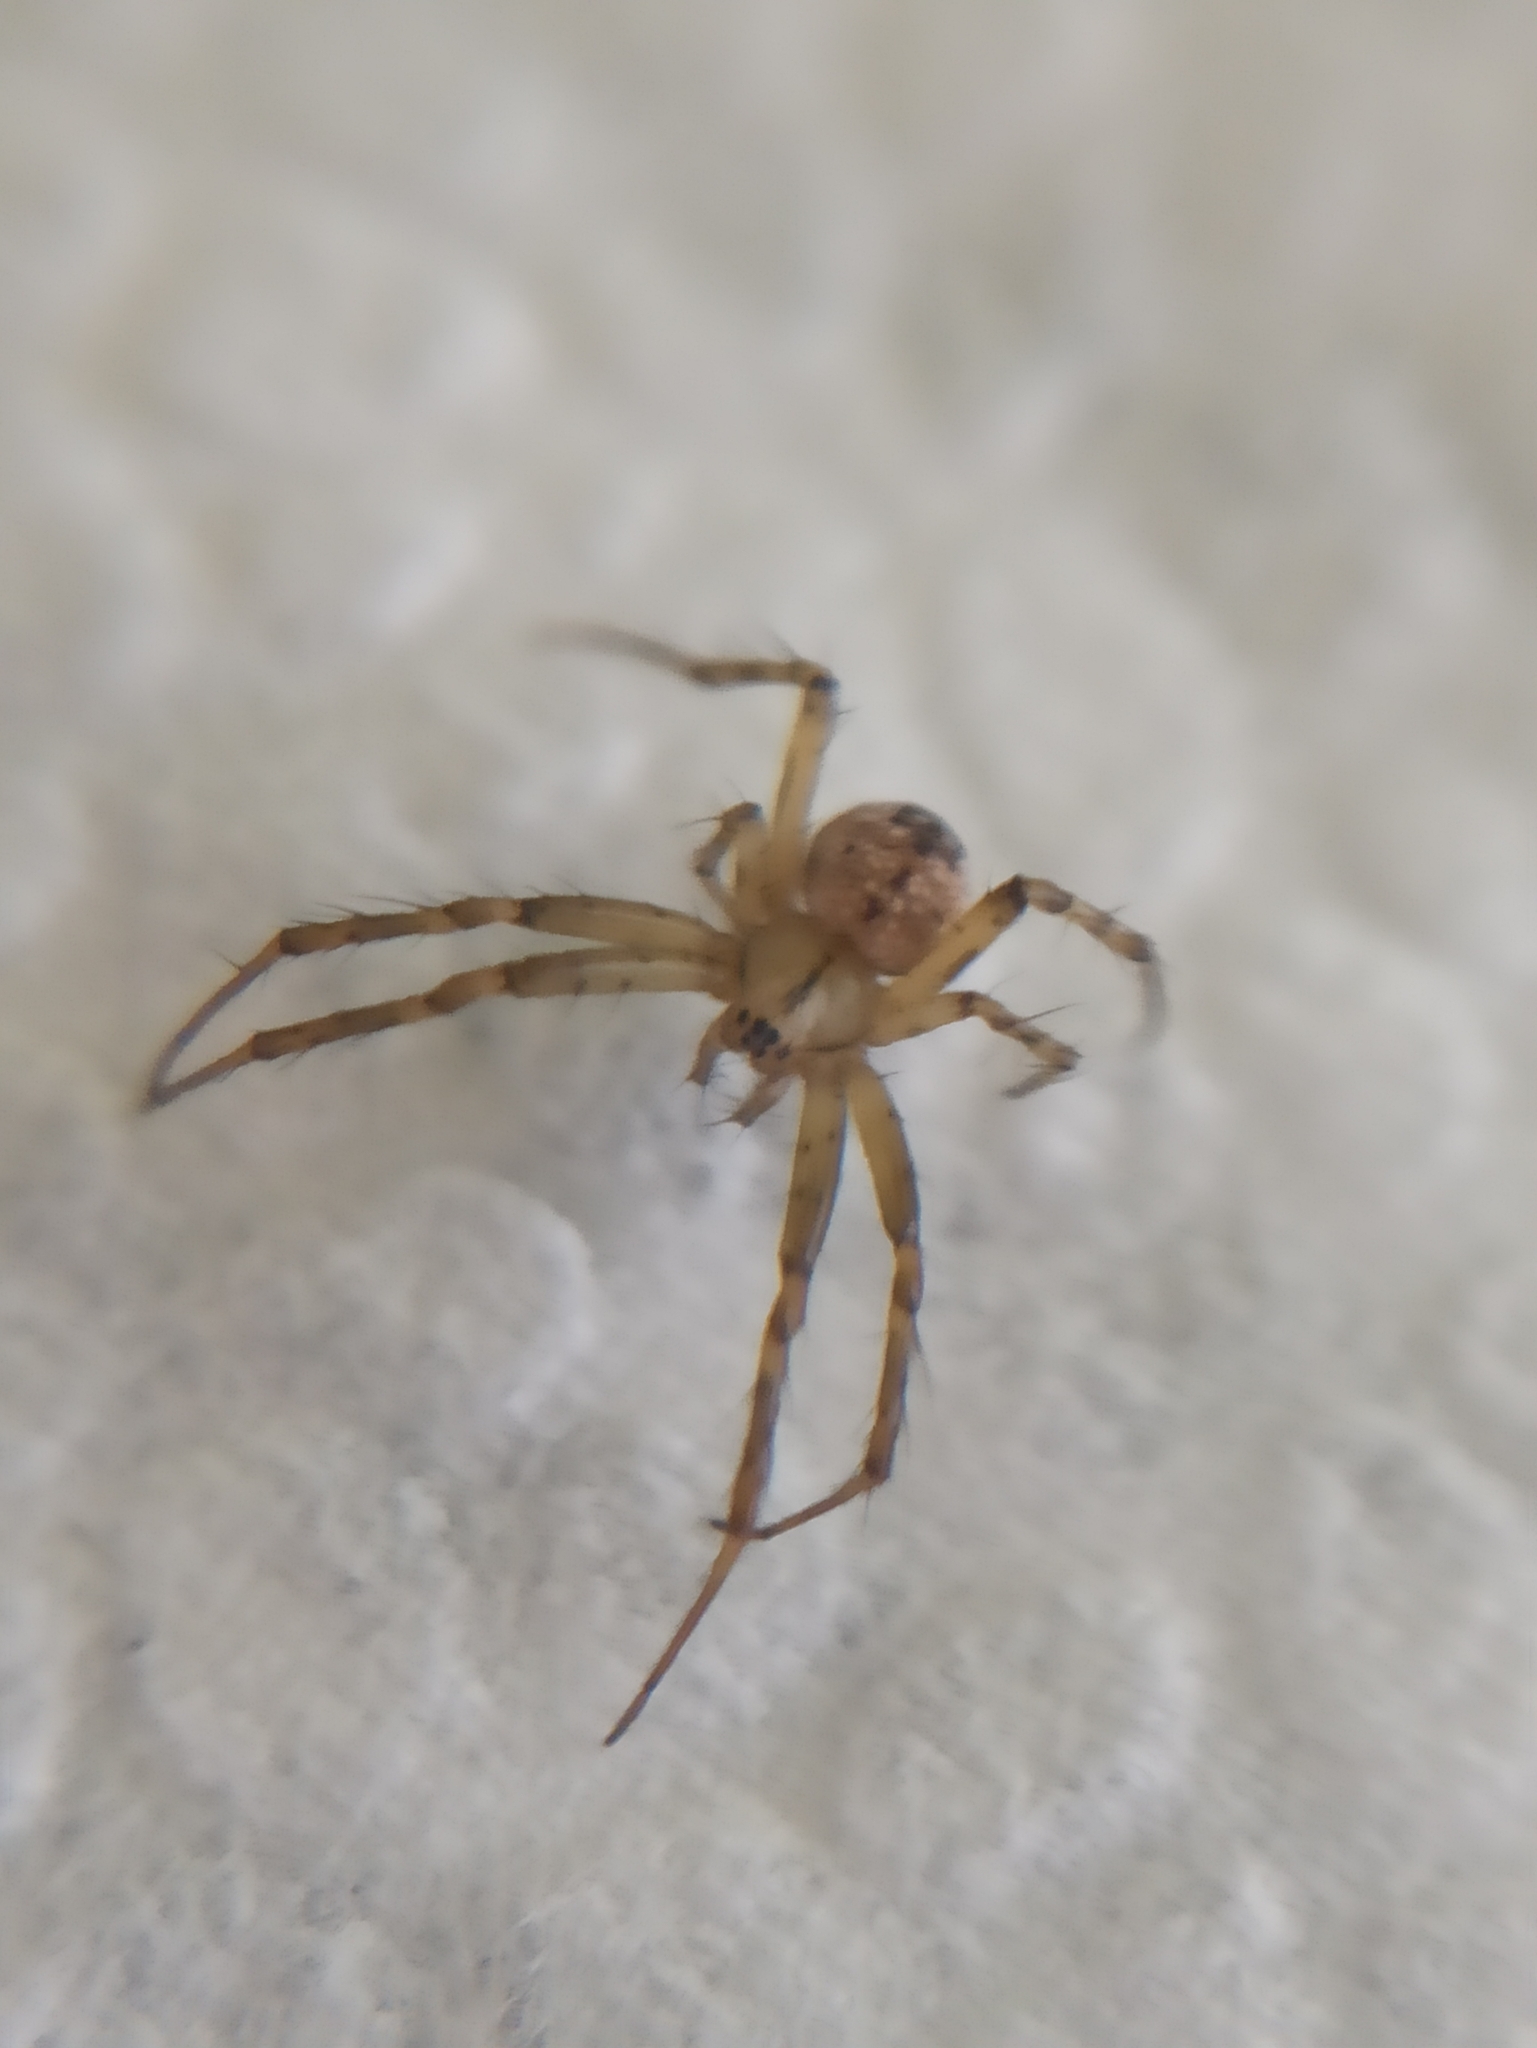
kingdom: Animalia
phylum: Arthropoda
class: Arachnida
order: Araneae
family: Araneidae
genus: Mangora
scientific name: Mangora acalypha
